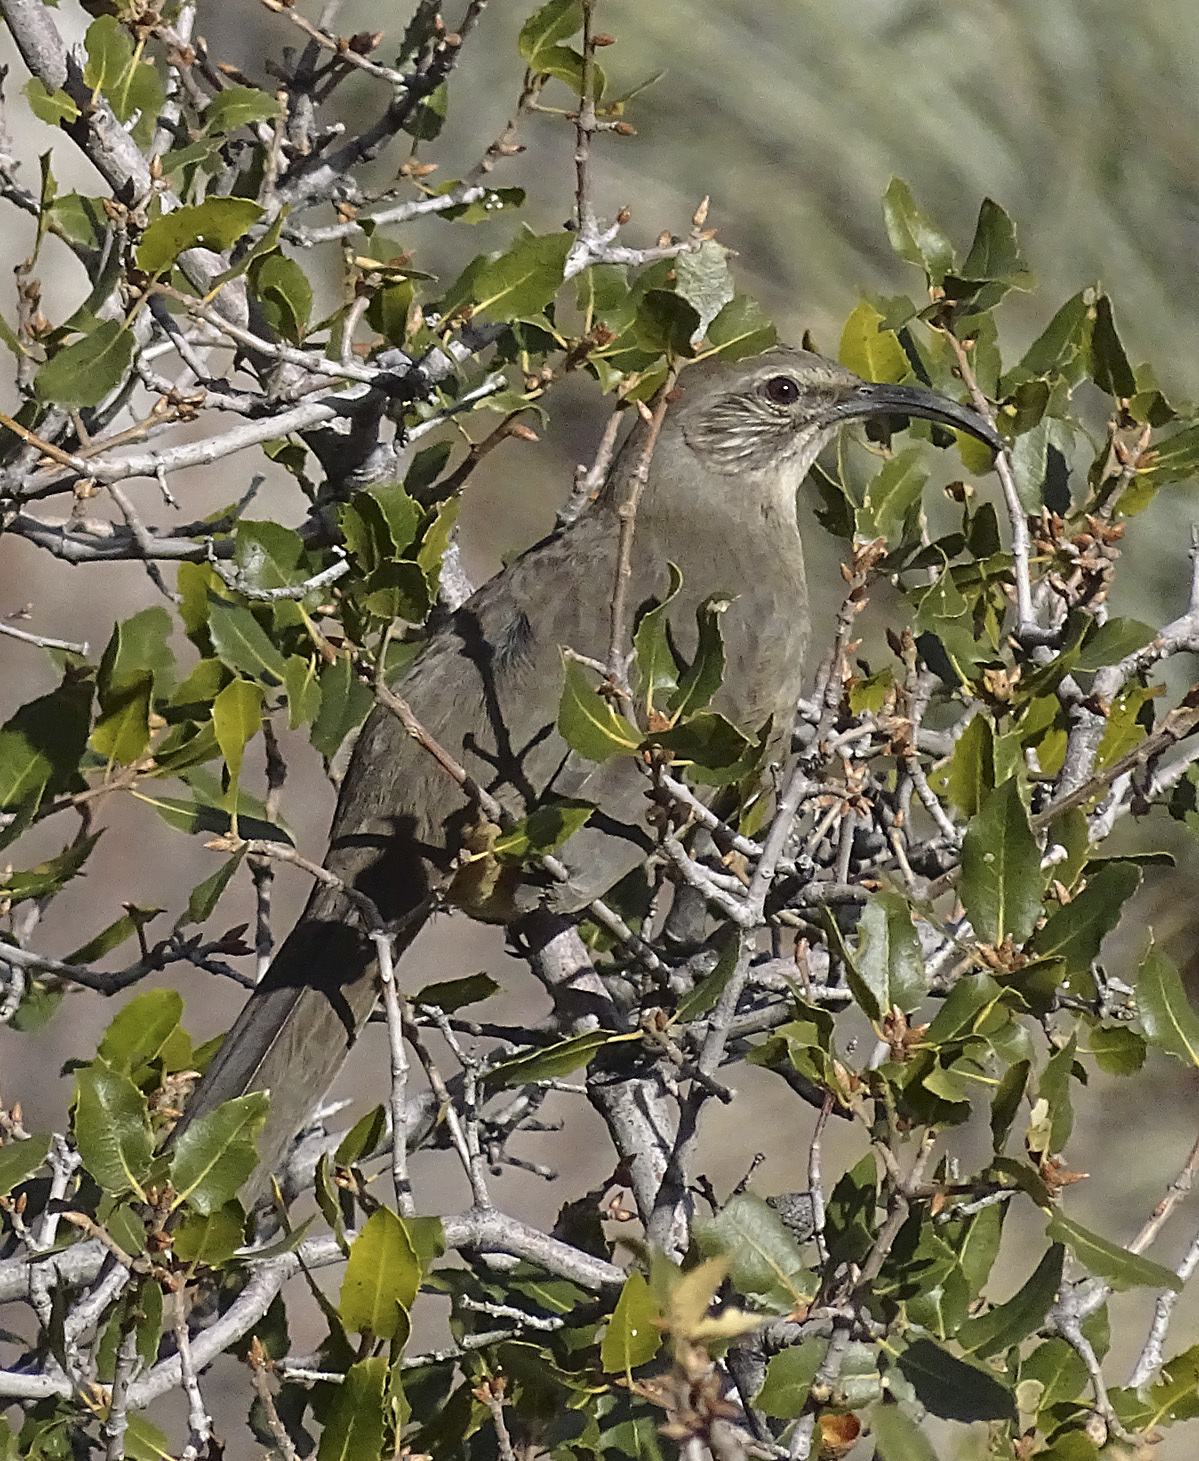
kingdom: Animalia
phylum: Chordata
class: Aves
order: Passeriformes
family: Mimidae
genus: Toxostoma
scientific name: Toxostoma redivivum
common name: California thrasher
